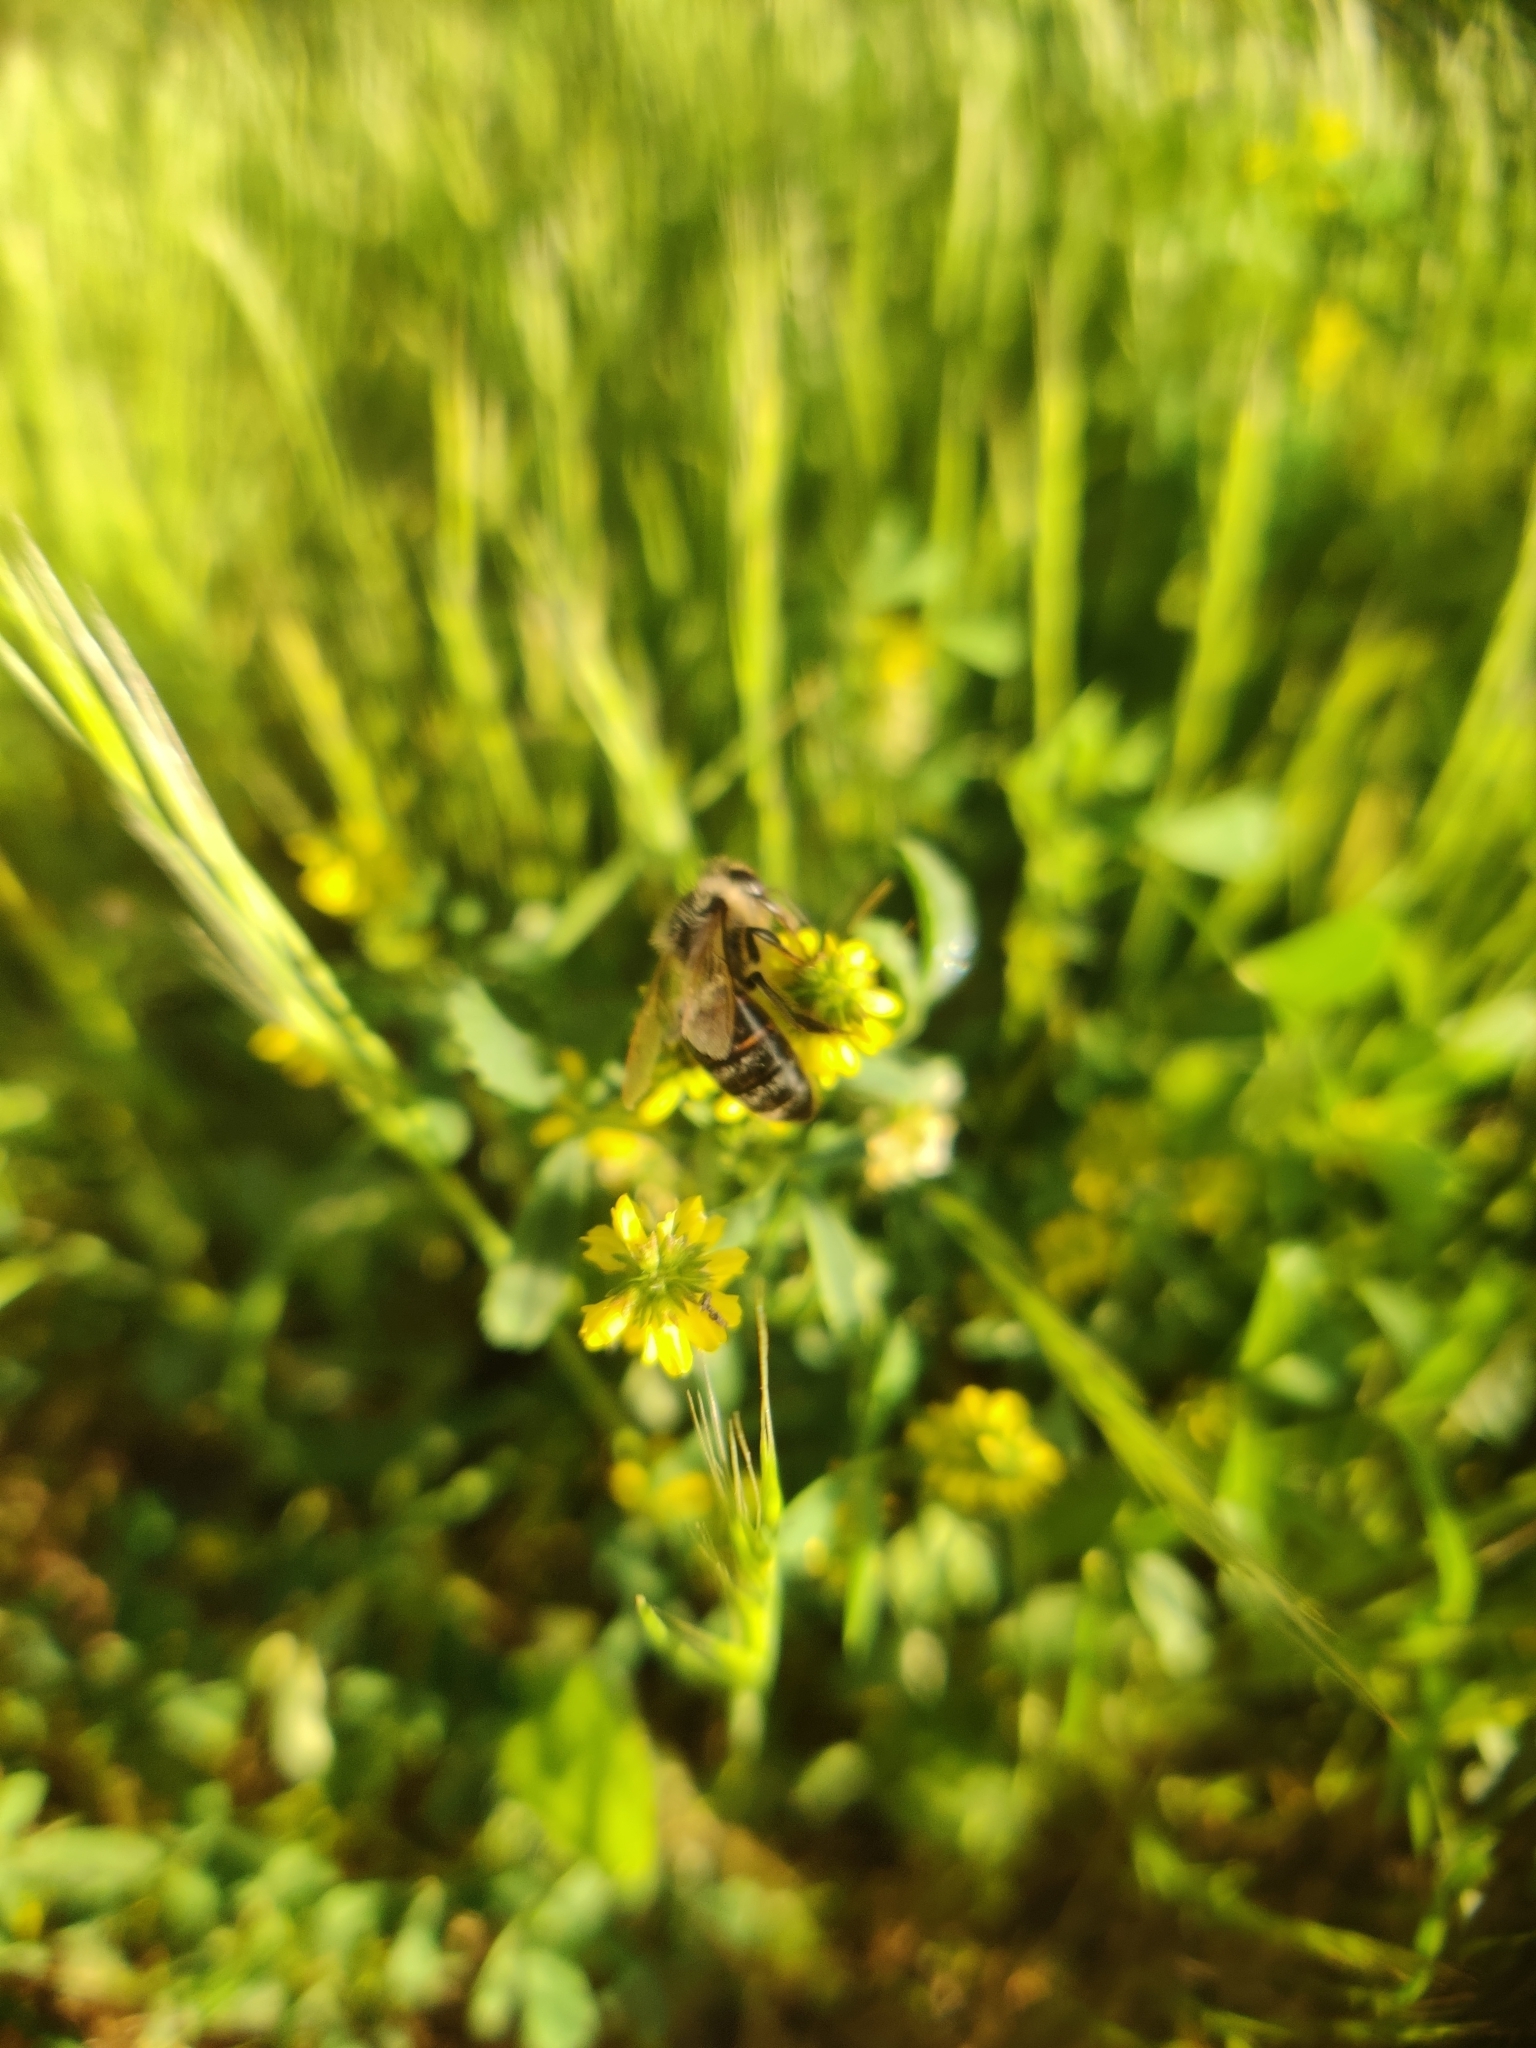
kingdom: Animalia
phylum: Arthropoda
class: Insecta
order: Hymenoptera
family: Apidae
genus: Apis
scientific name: Apis mellifera
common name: Honey bee
